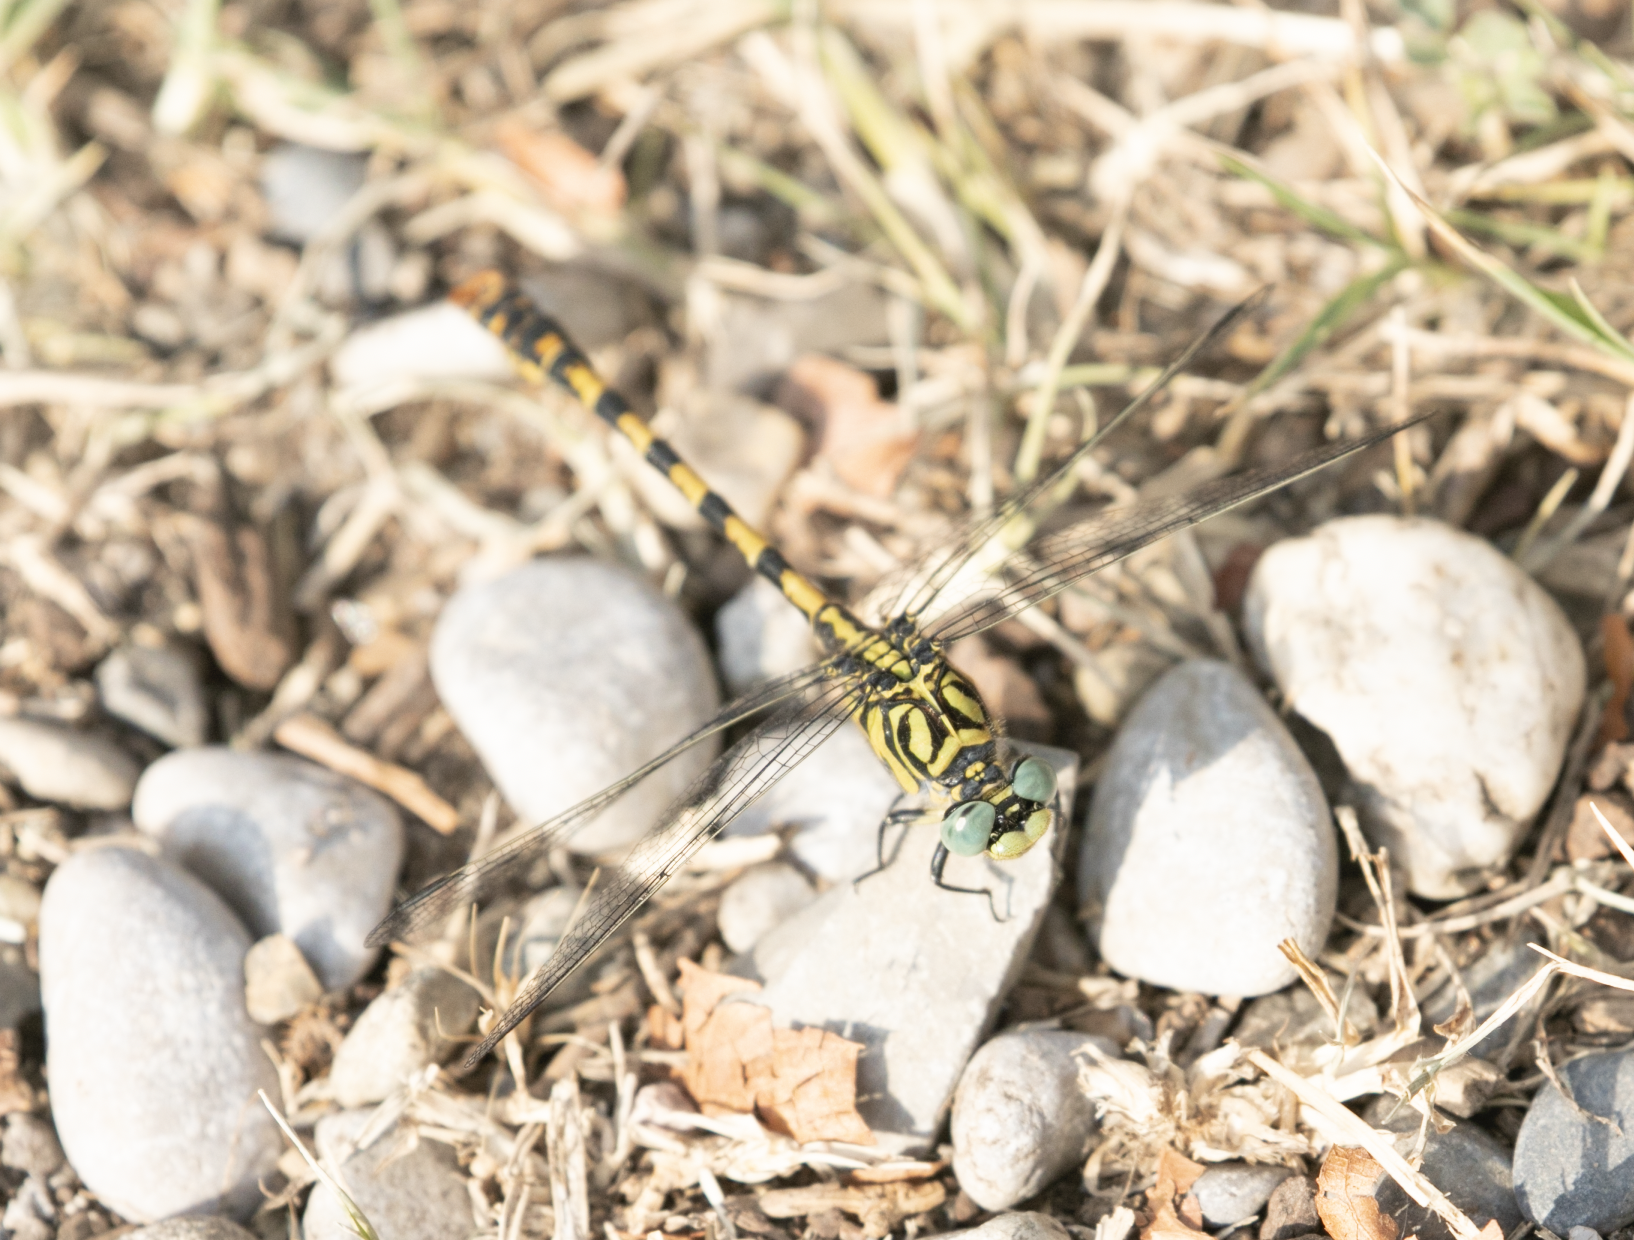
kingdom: Animalia
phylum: Arthropoda
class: Insecta
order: Odonata
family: Gomphidae
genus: Onychogomphus
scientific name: Onychogomphus forcipatus
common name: Small pincertail
